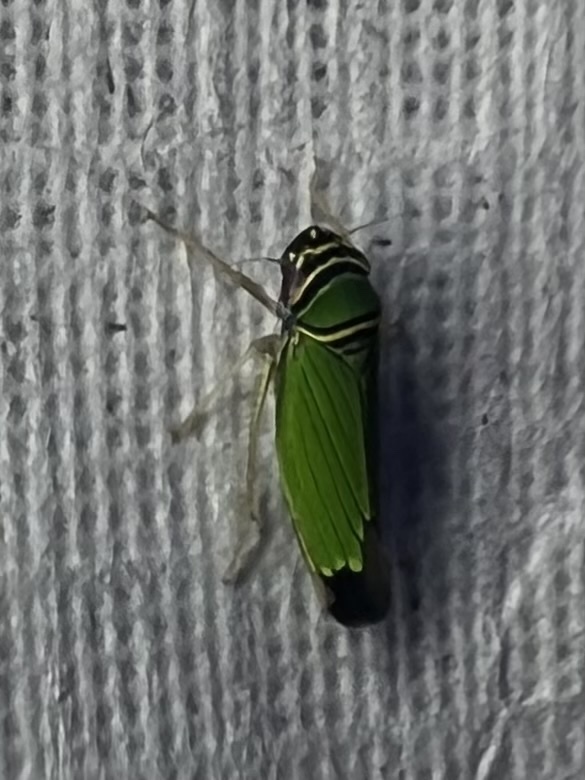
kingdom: Animalia
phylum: Arthropoda
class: Insecta
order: Hemiptera
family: Cicadellidae
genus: Tylozygus
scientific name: Tylozygus geometricus
